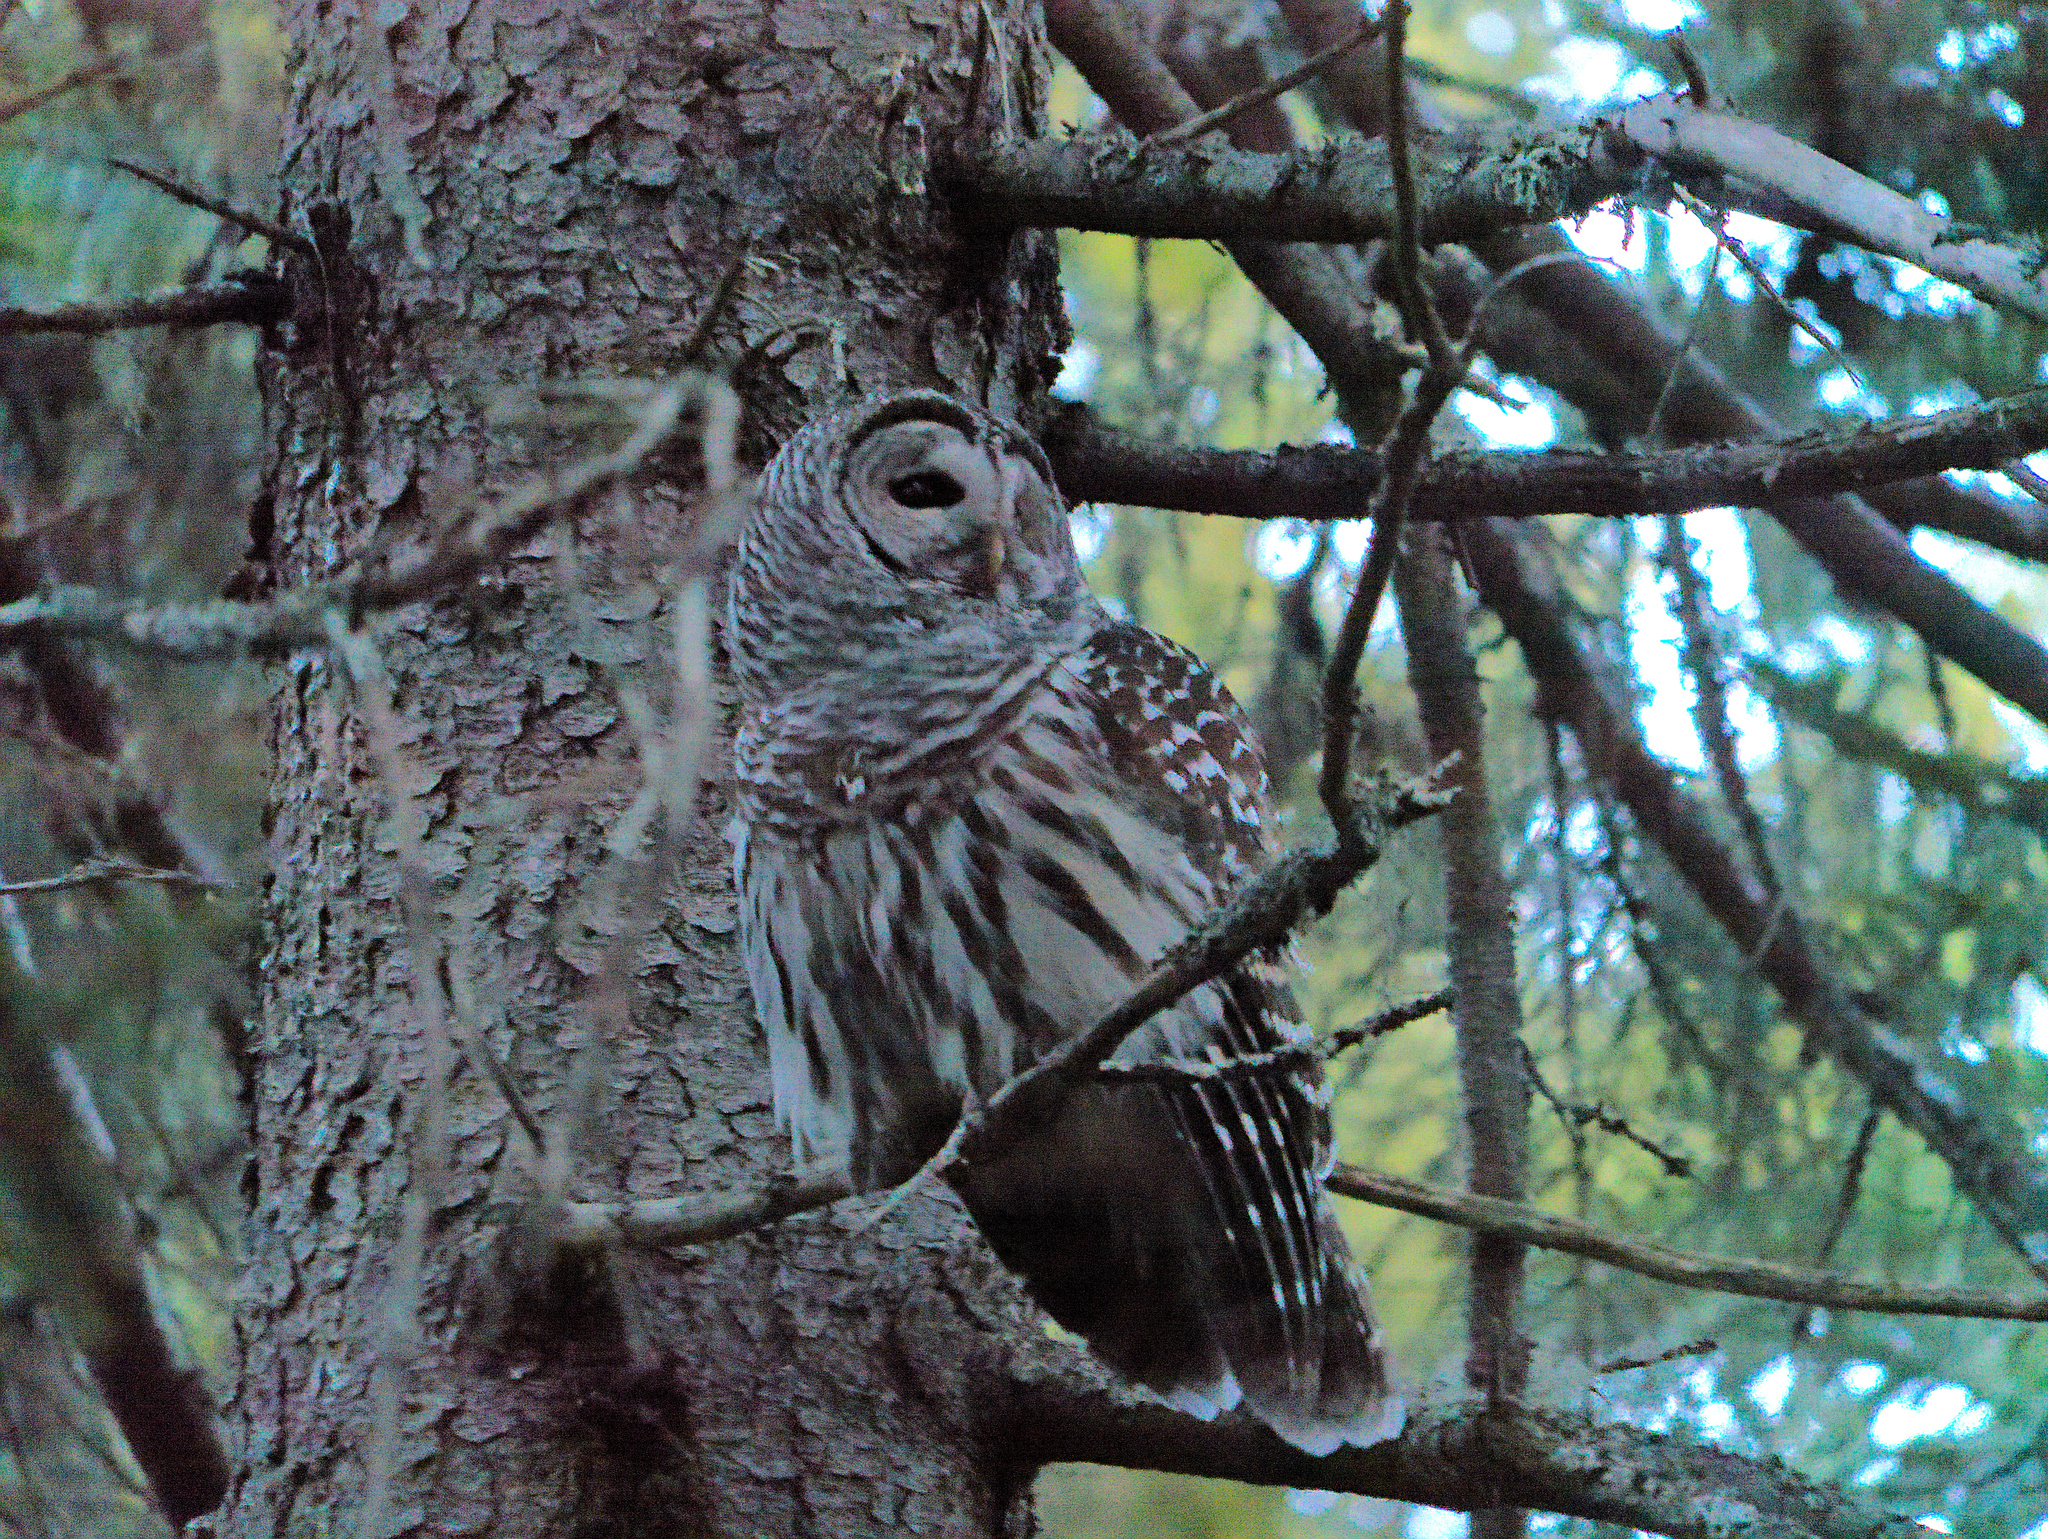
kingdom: Animalia
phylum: Chordata
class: Aves
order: Strigiformes
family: Strigidae
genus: Strix
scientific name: Strix varia
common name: Barred owl
